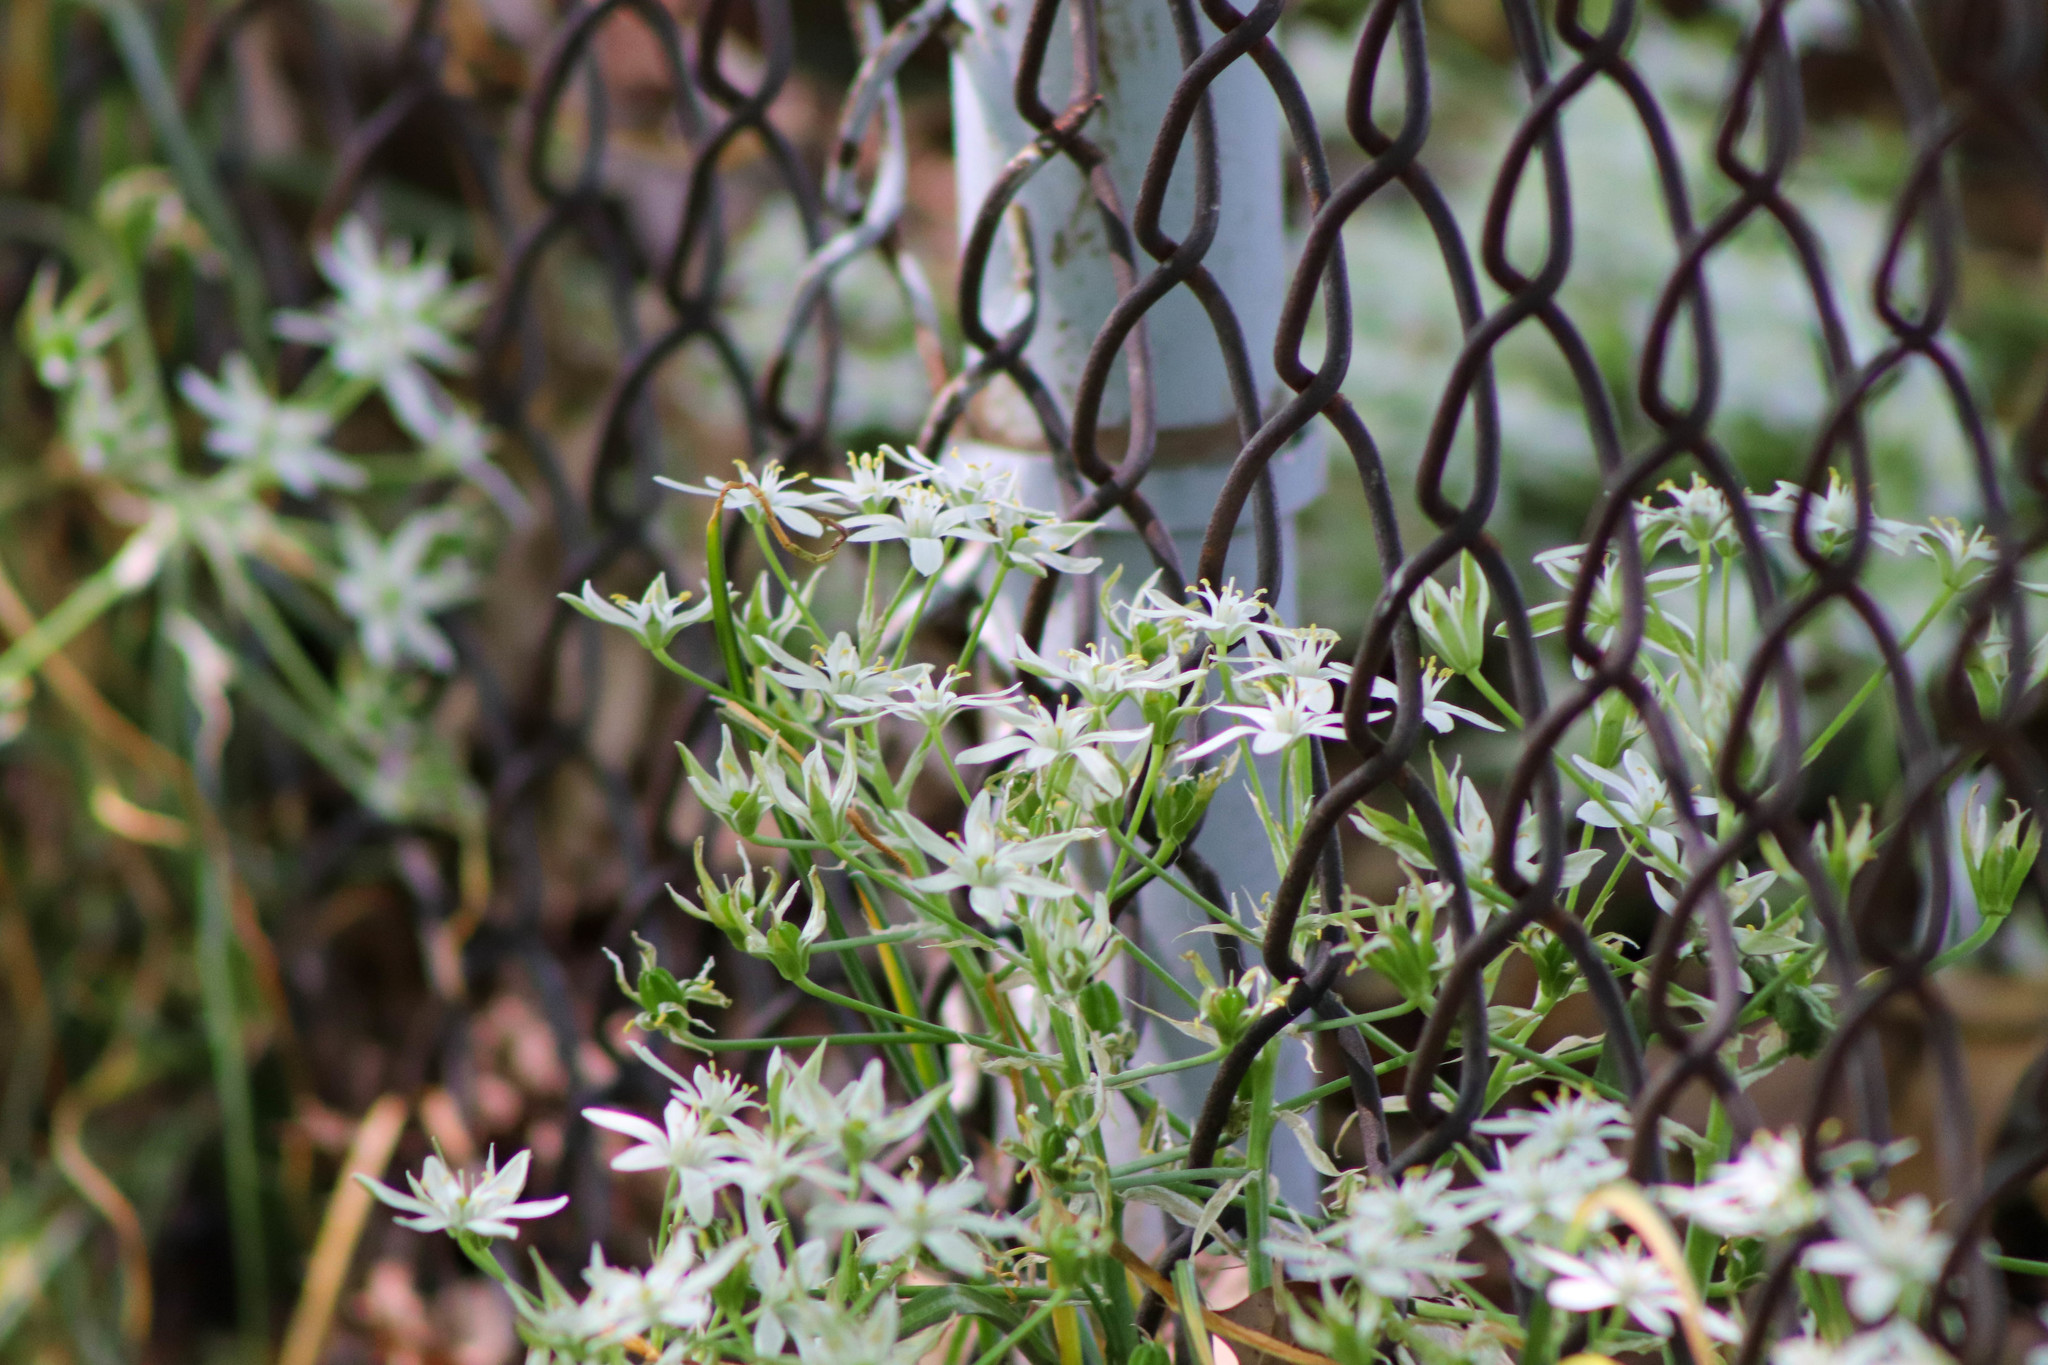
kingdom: Plantae
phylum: Tracheophyta
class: Liliopsida
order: Asparagales
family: Asparagaceae
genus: Ornithogalum
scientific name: Ornithogalum umbellatum
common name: Garden star-of-bethlehem
